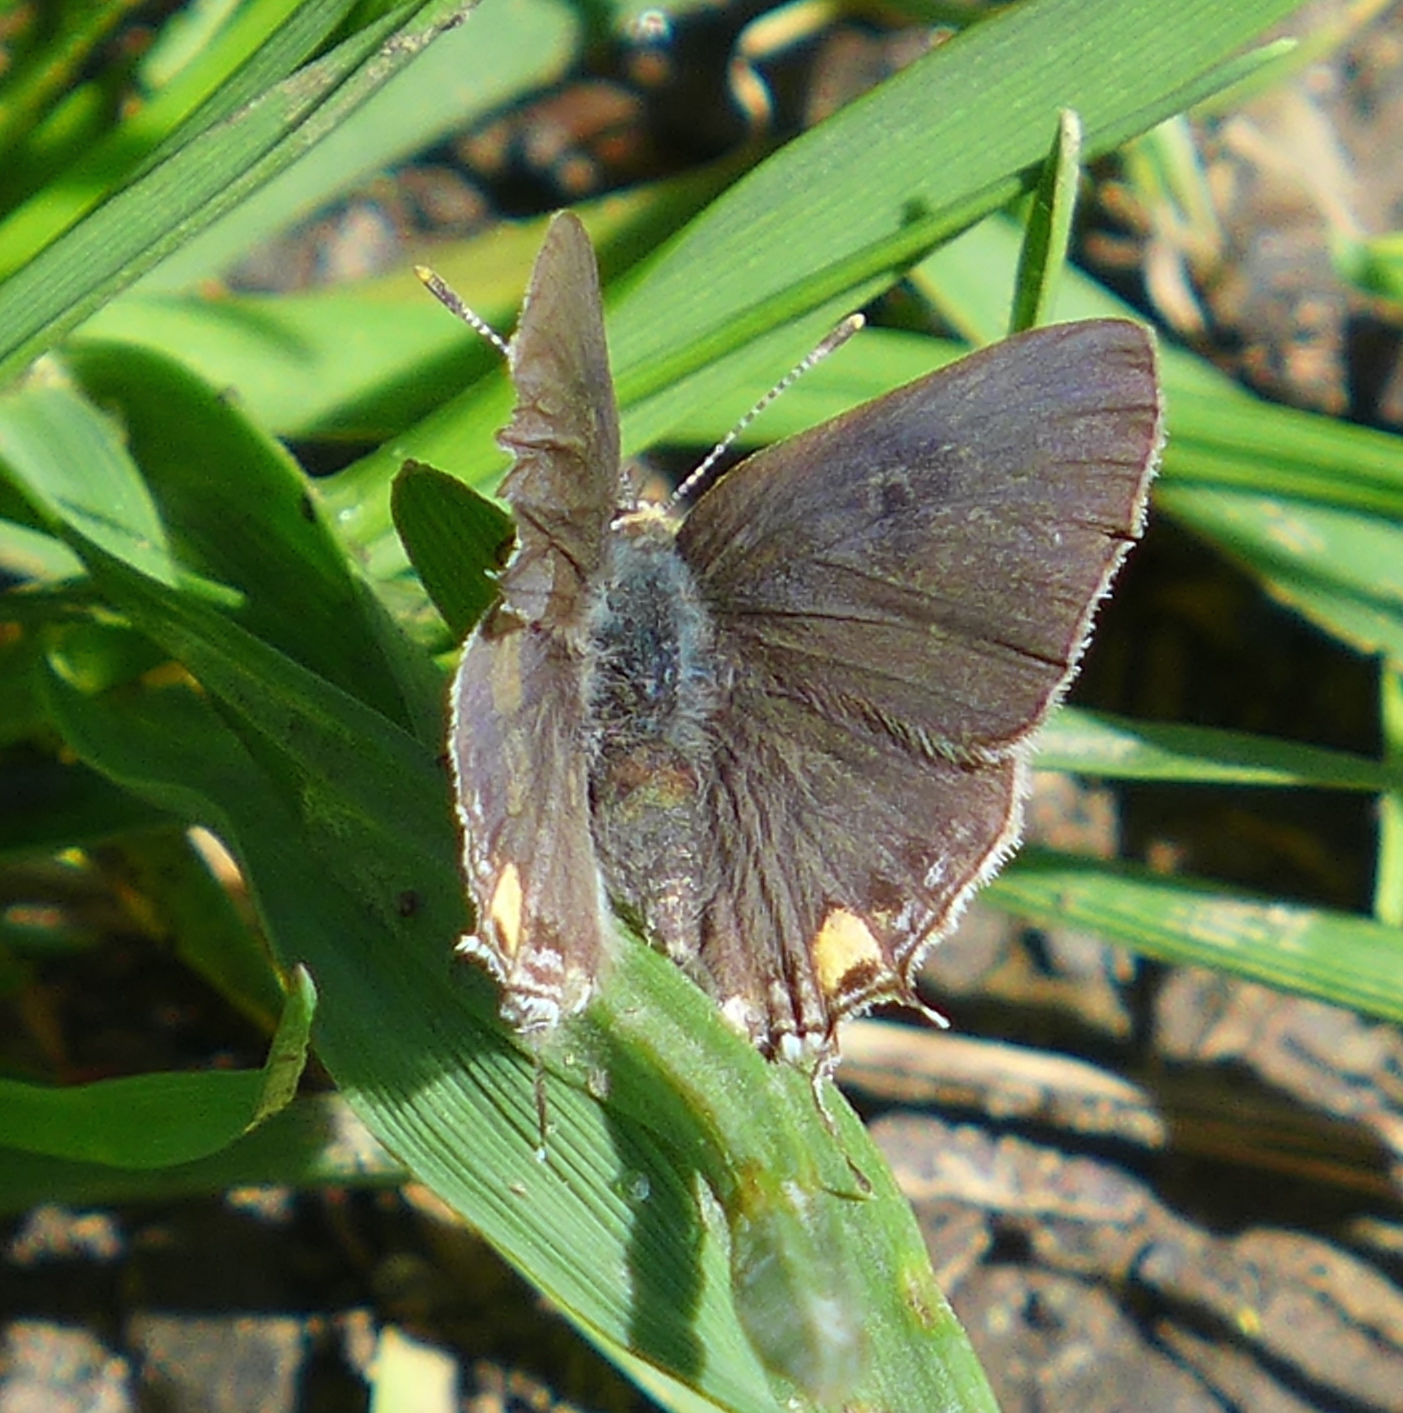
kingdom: Animalia
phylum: Arthropoda
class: Insecta
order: Lepidoptera
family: Lycaenidae
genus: Strymon
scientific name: Strymon melinus
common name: Gray hairstreak
